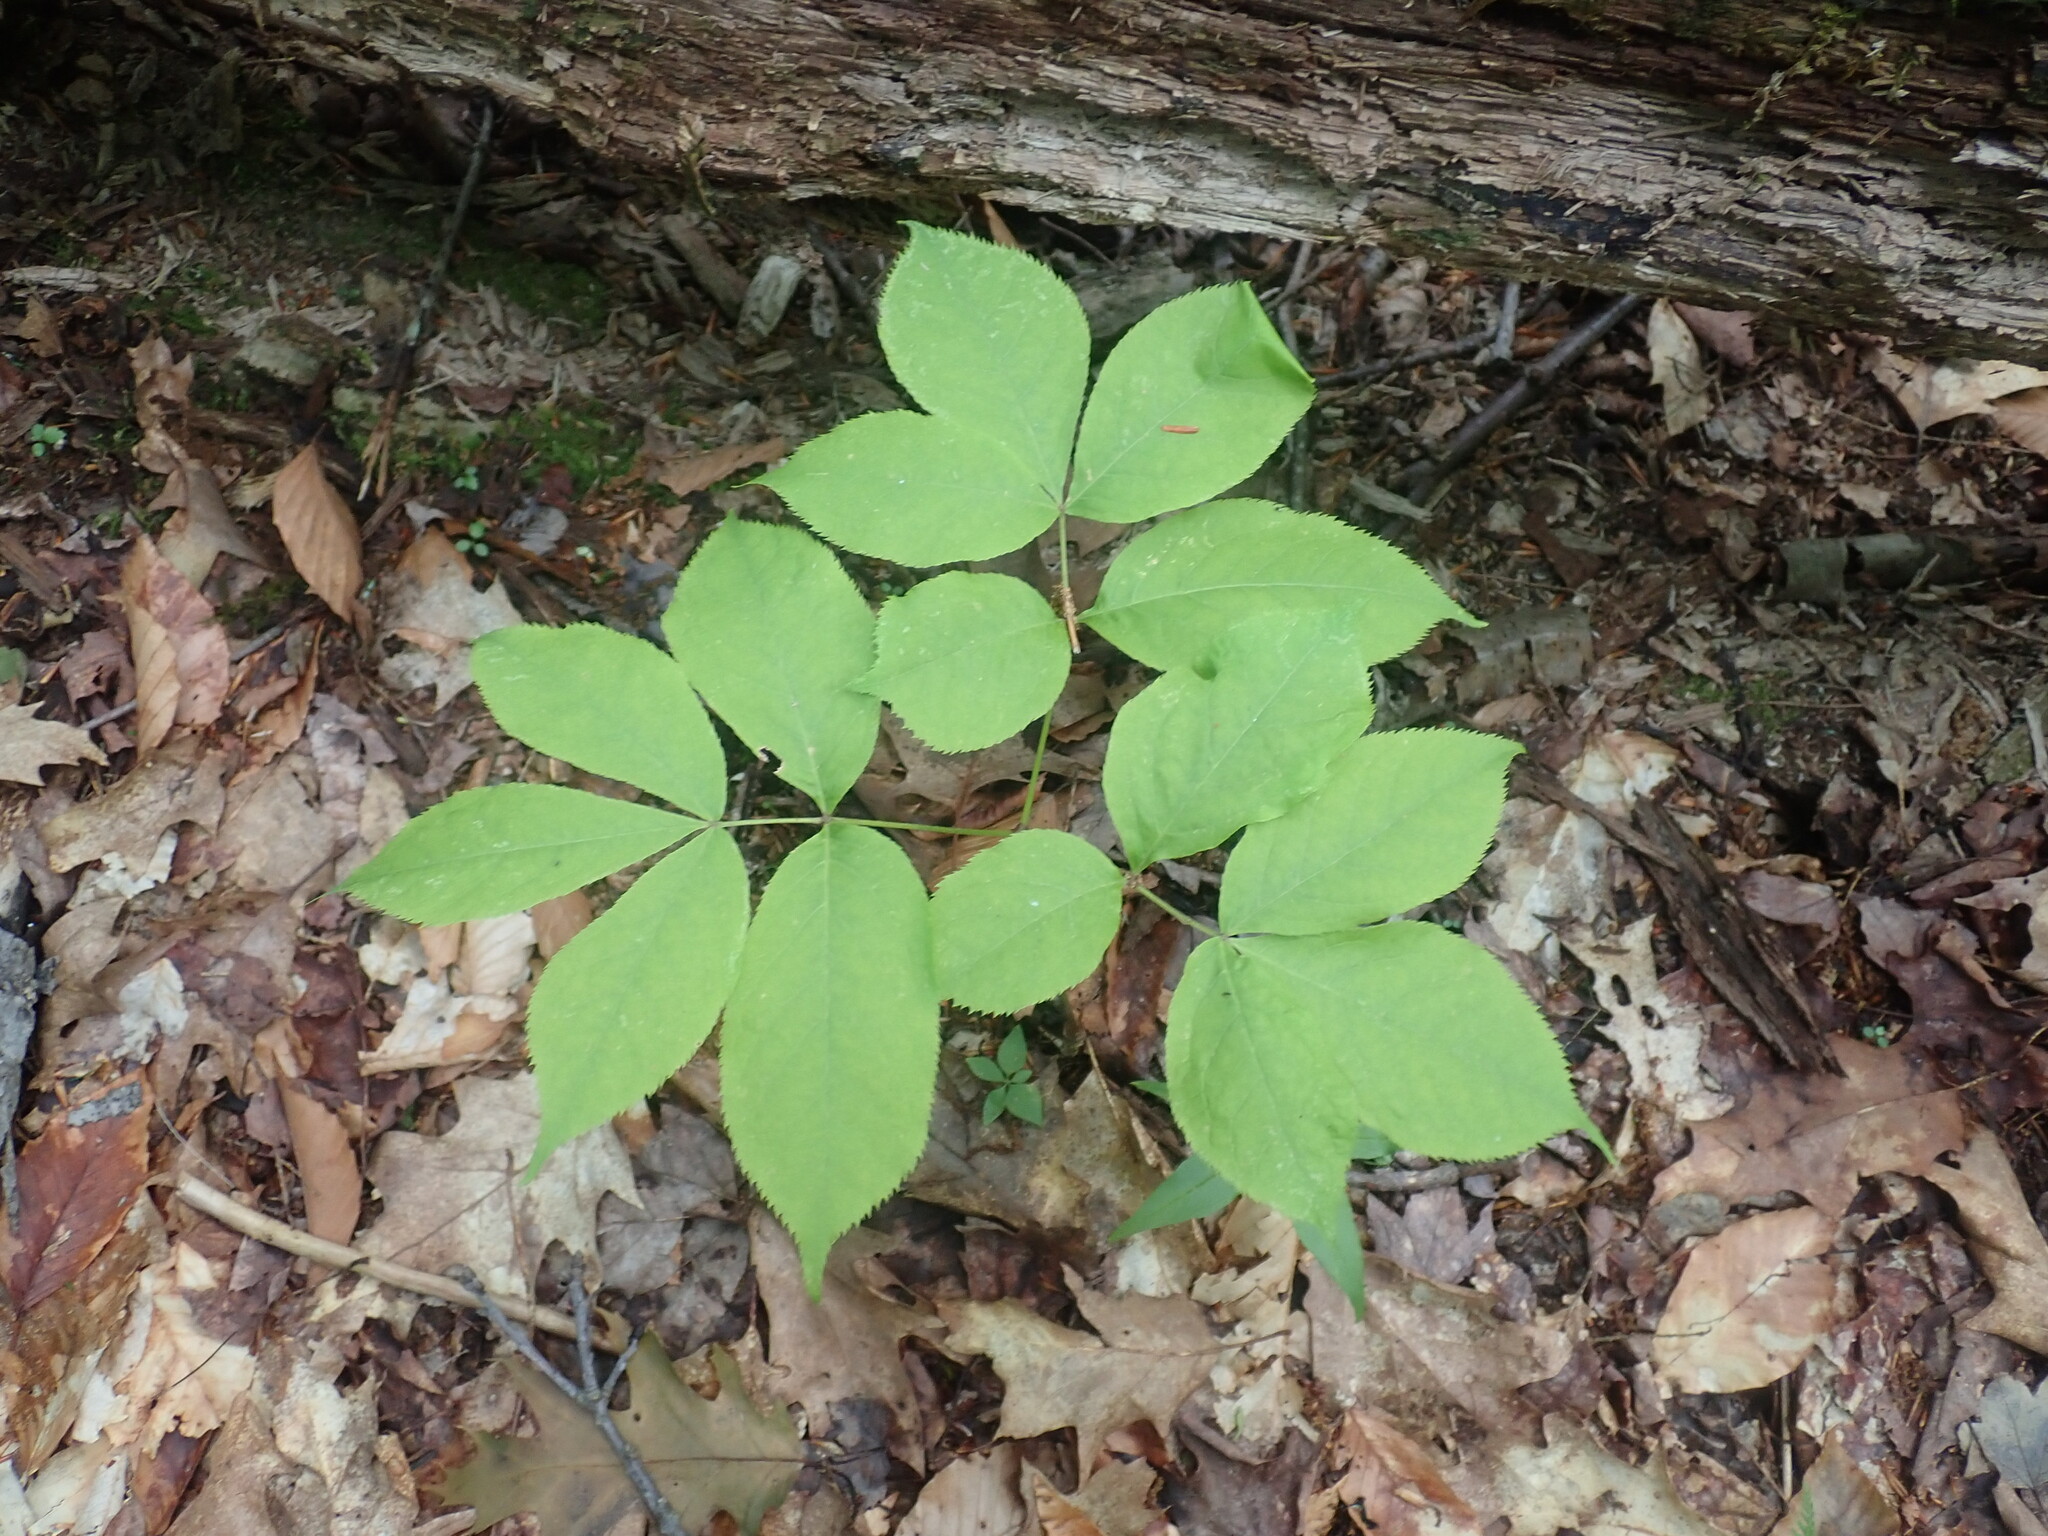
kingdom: Plantae
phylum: Tracheophyta
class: Magnoliopsida
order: Apiales
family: Araliaceae
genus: Aralia
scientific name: Aralia nudicaulis
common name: Wild sarsaparilla
